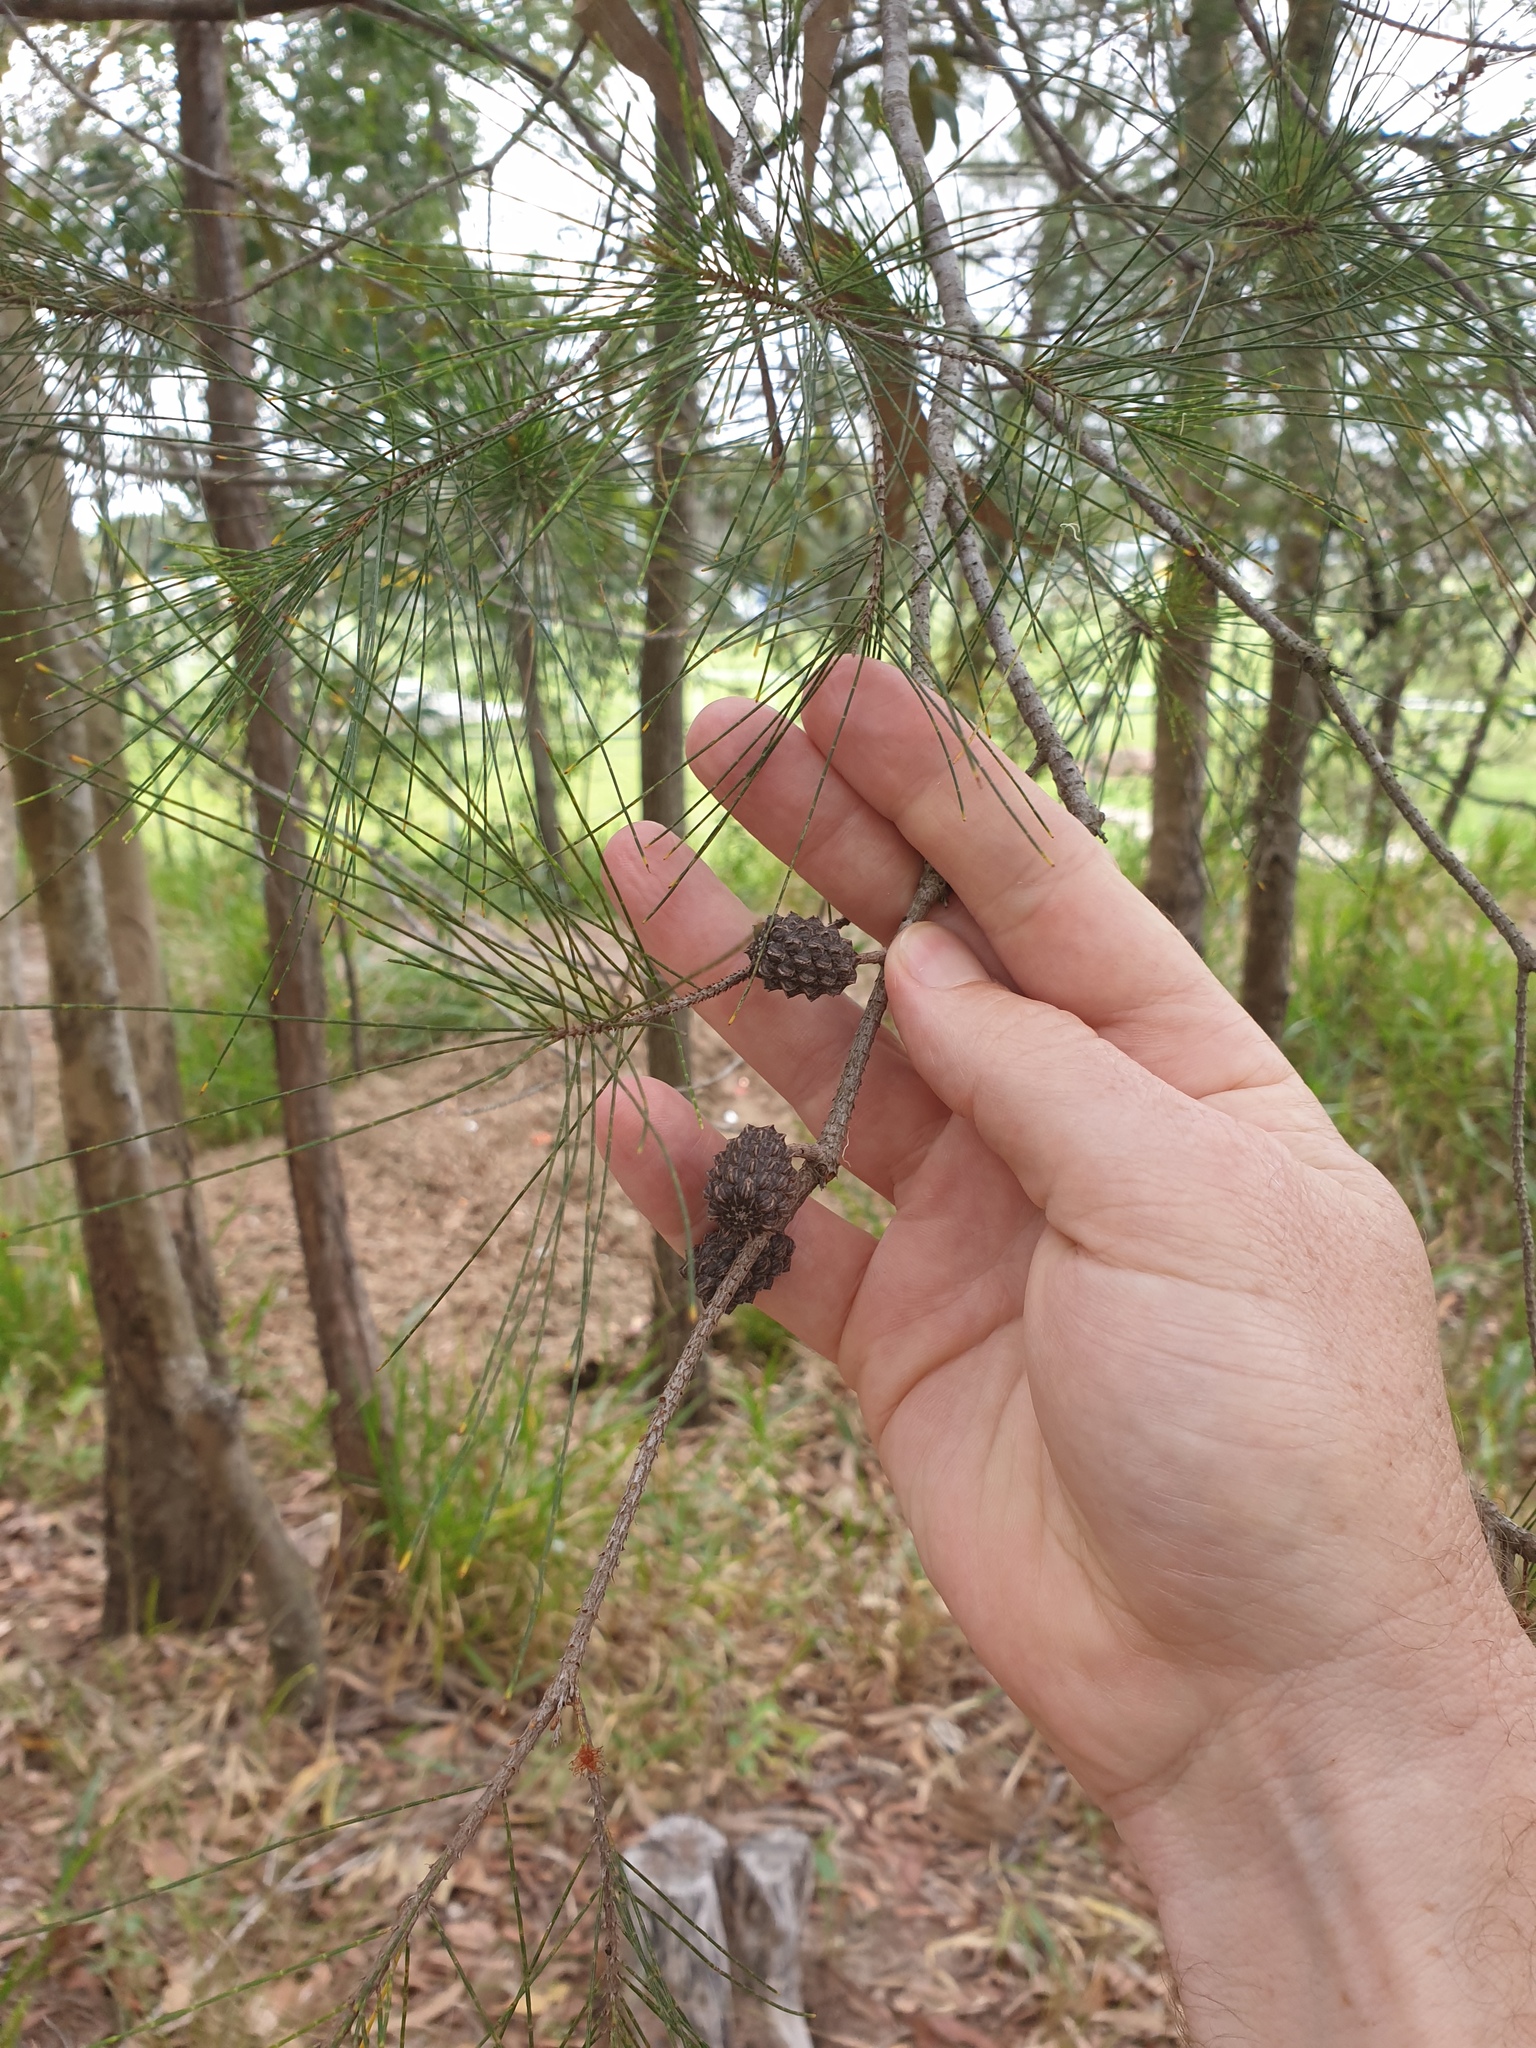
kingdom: Plantae
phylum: Tracheophyta
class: Magnoliopsida
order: Fagales
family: Casuarinaceae
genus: Allocasuarina
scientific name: Allocasuarina littoralis
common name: Black she-oak
